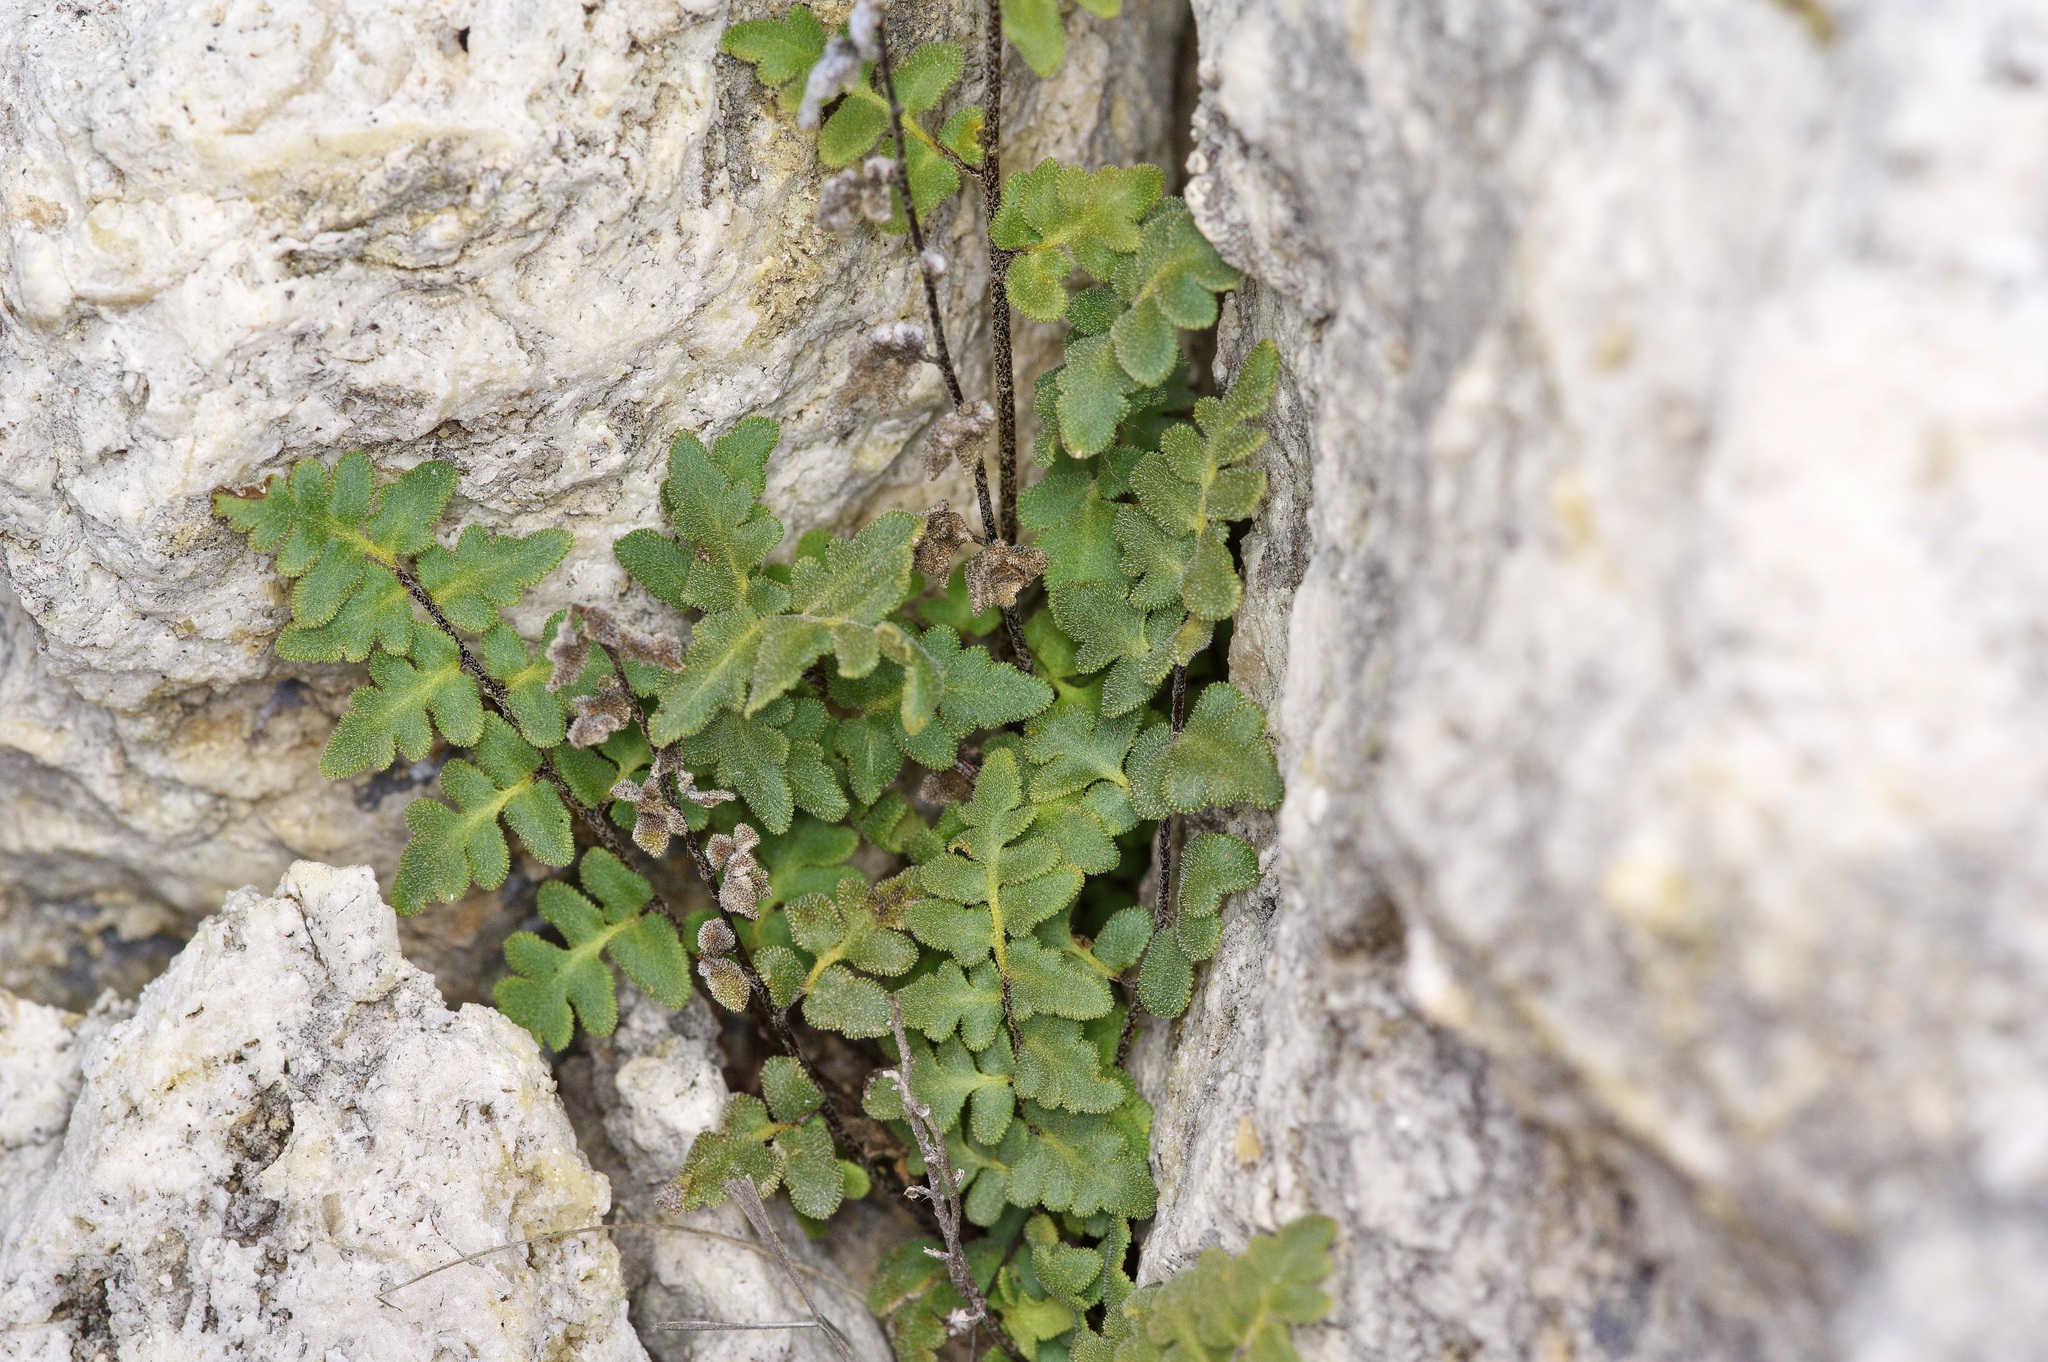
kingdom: Plantae
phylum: Tracheophyta
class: Polypodiopsida
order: Polypodiales
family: Pteridaceae
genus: Myriopteris
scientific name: Myriopteris scabra
